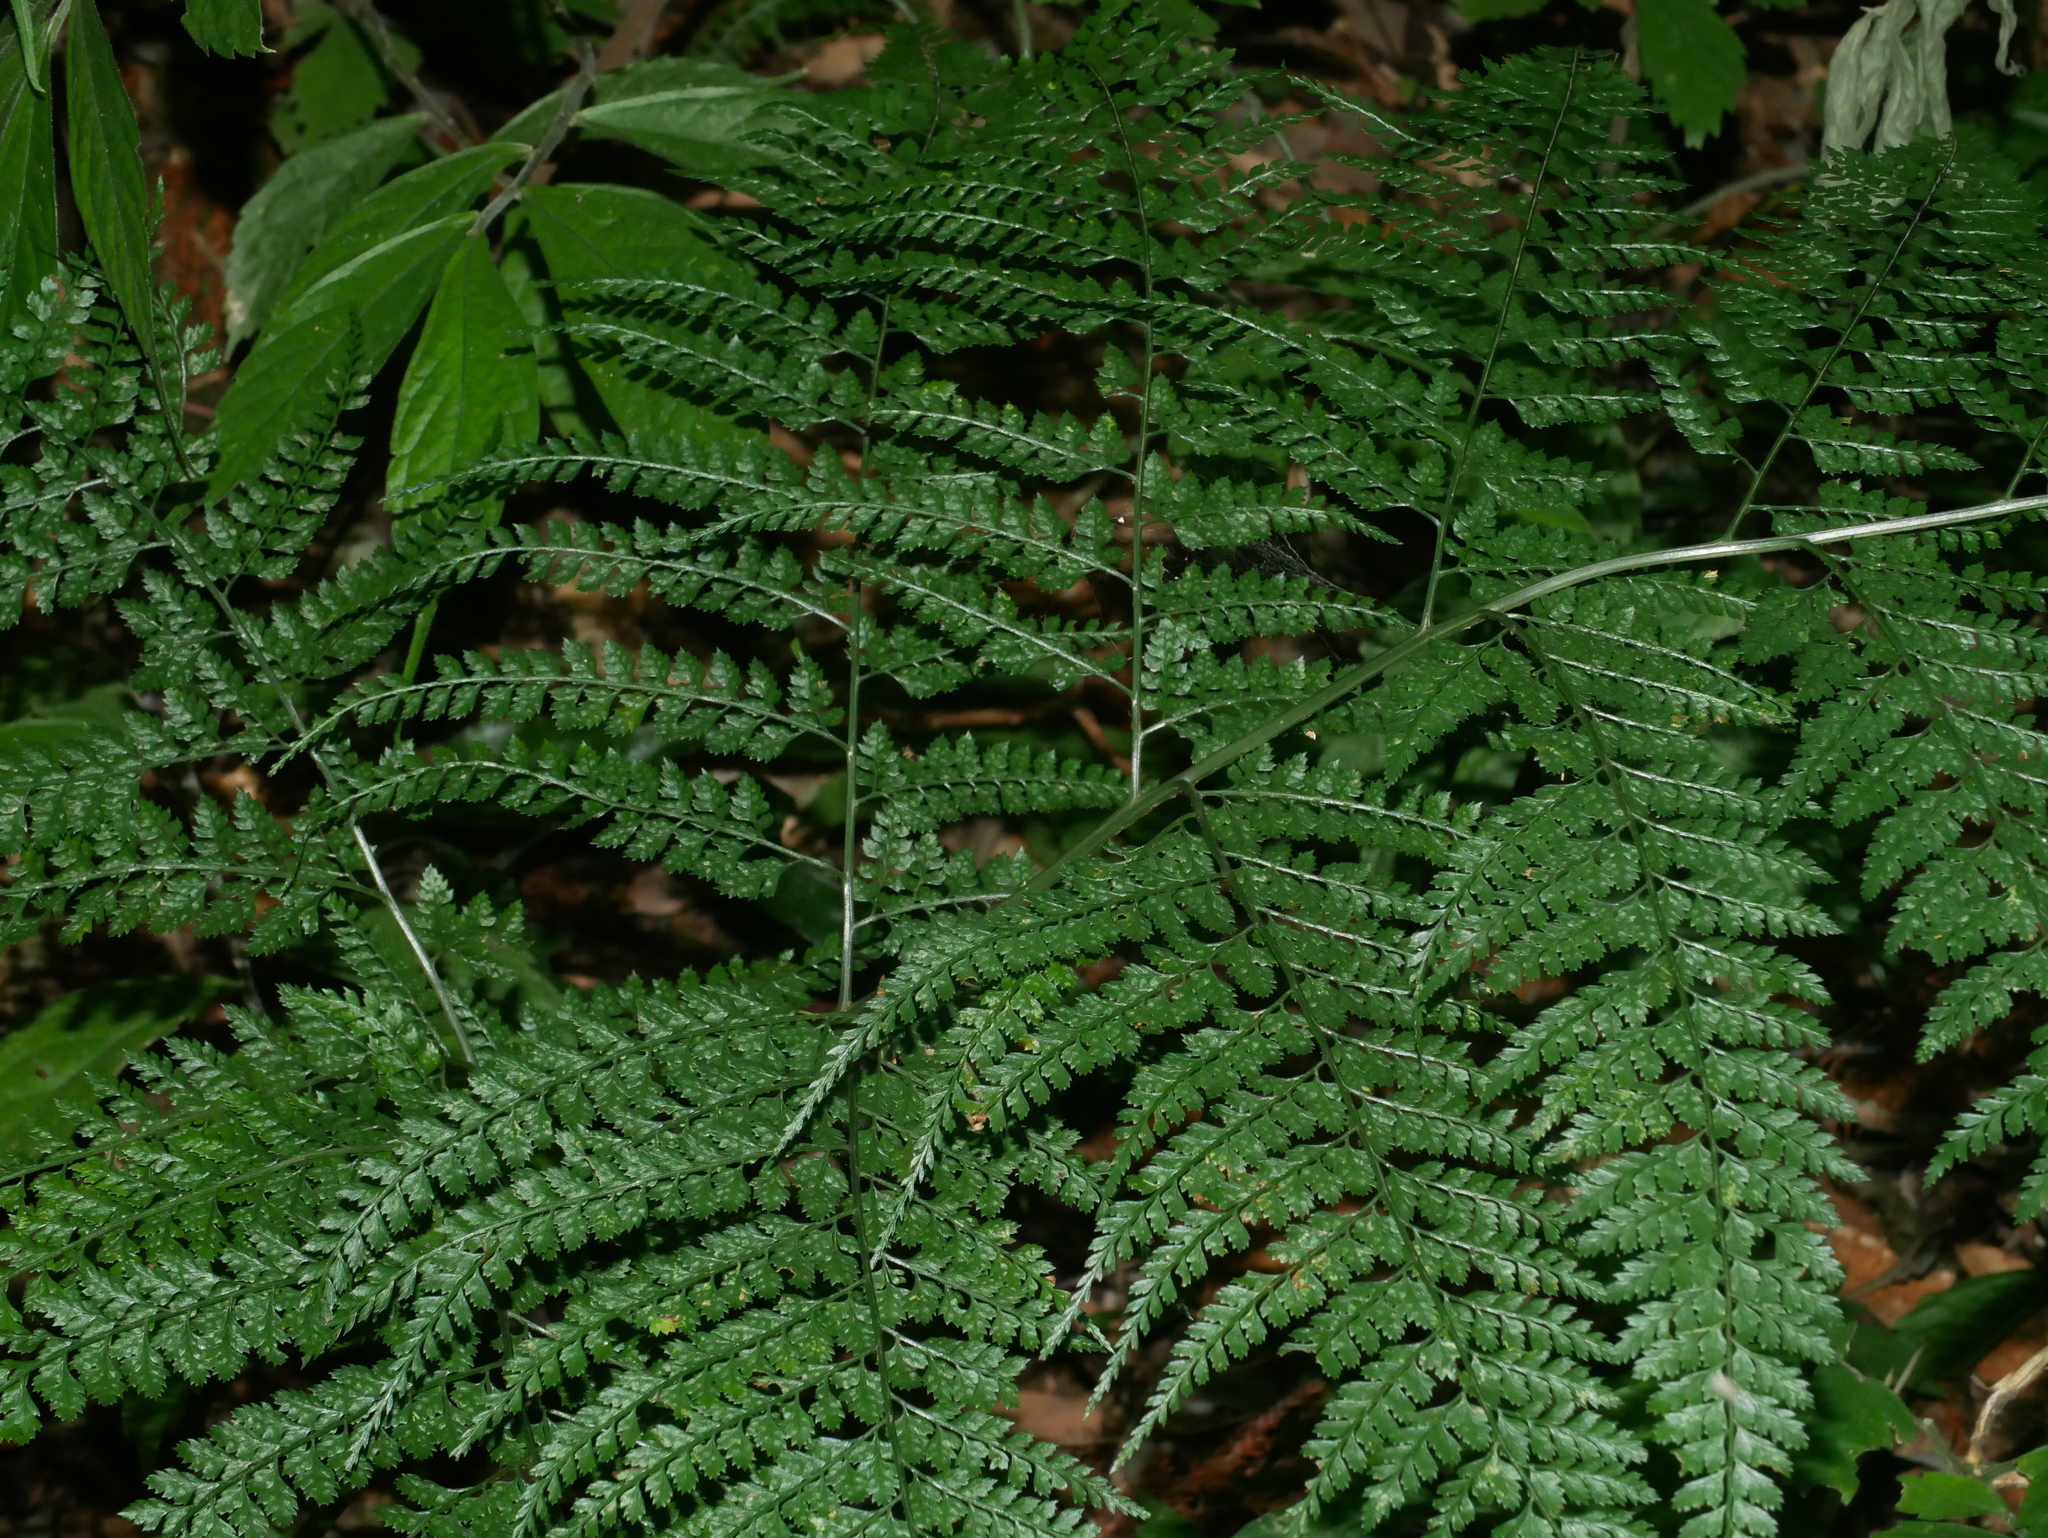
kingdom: Plantae
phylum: Tracheophyta
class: Polypodiopsida
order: Polypodiales
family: Dryopteridaceae
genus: Arachniodes
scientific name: Arachniodes festina
